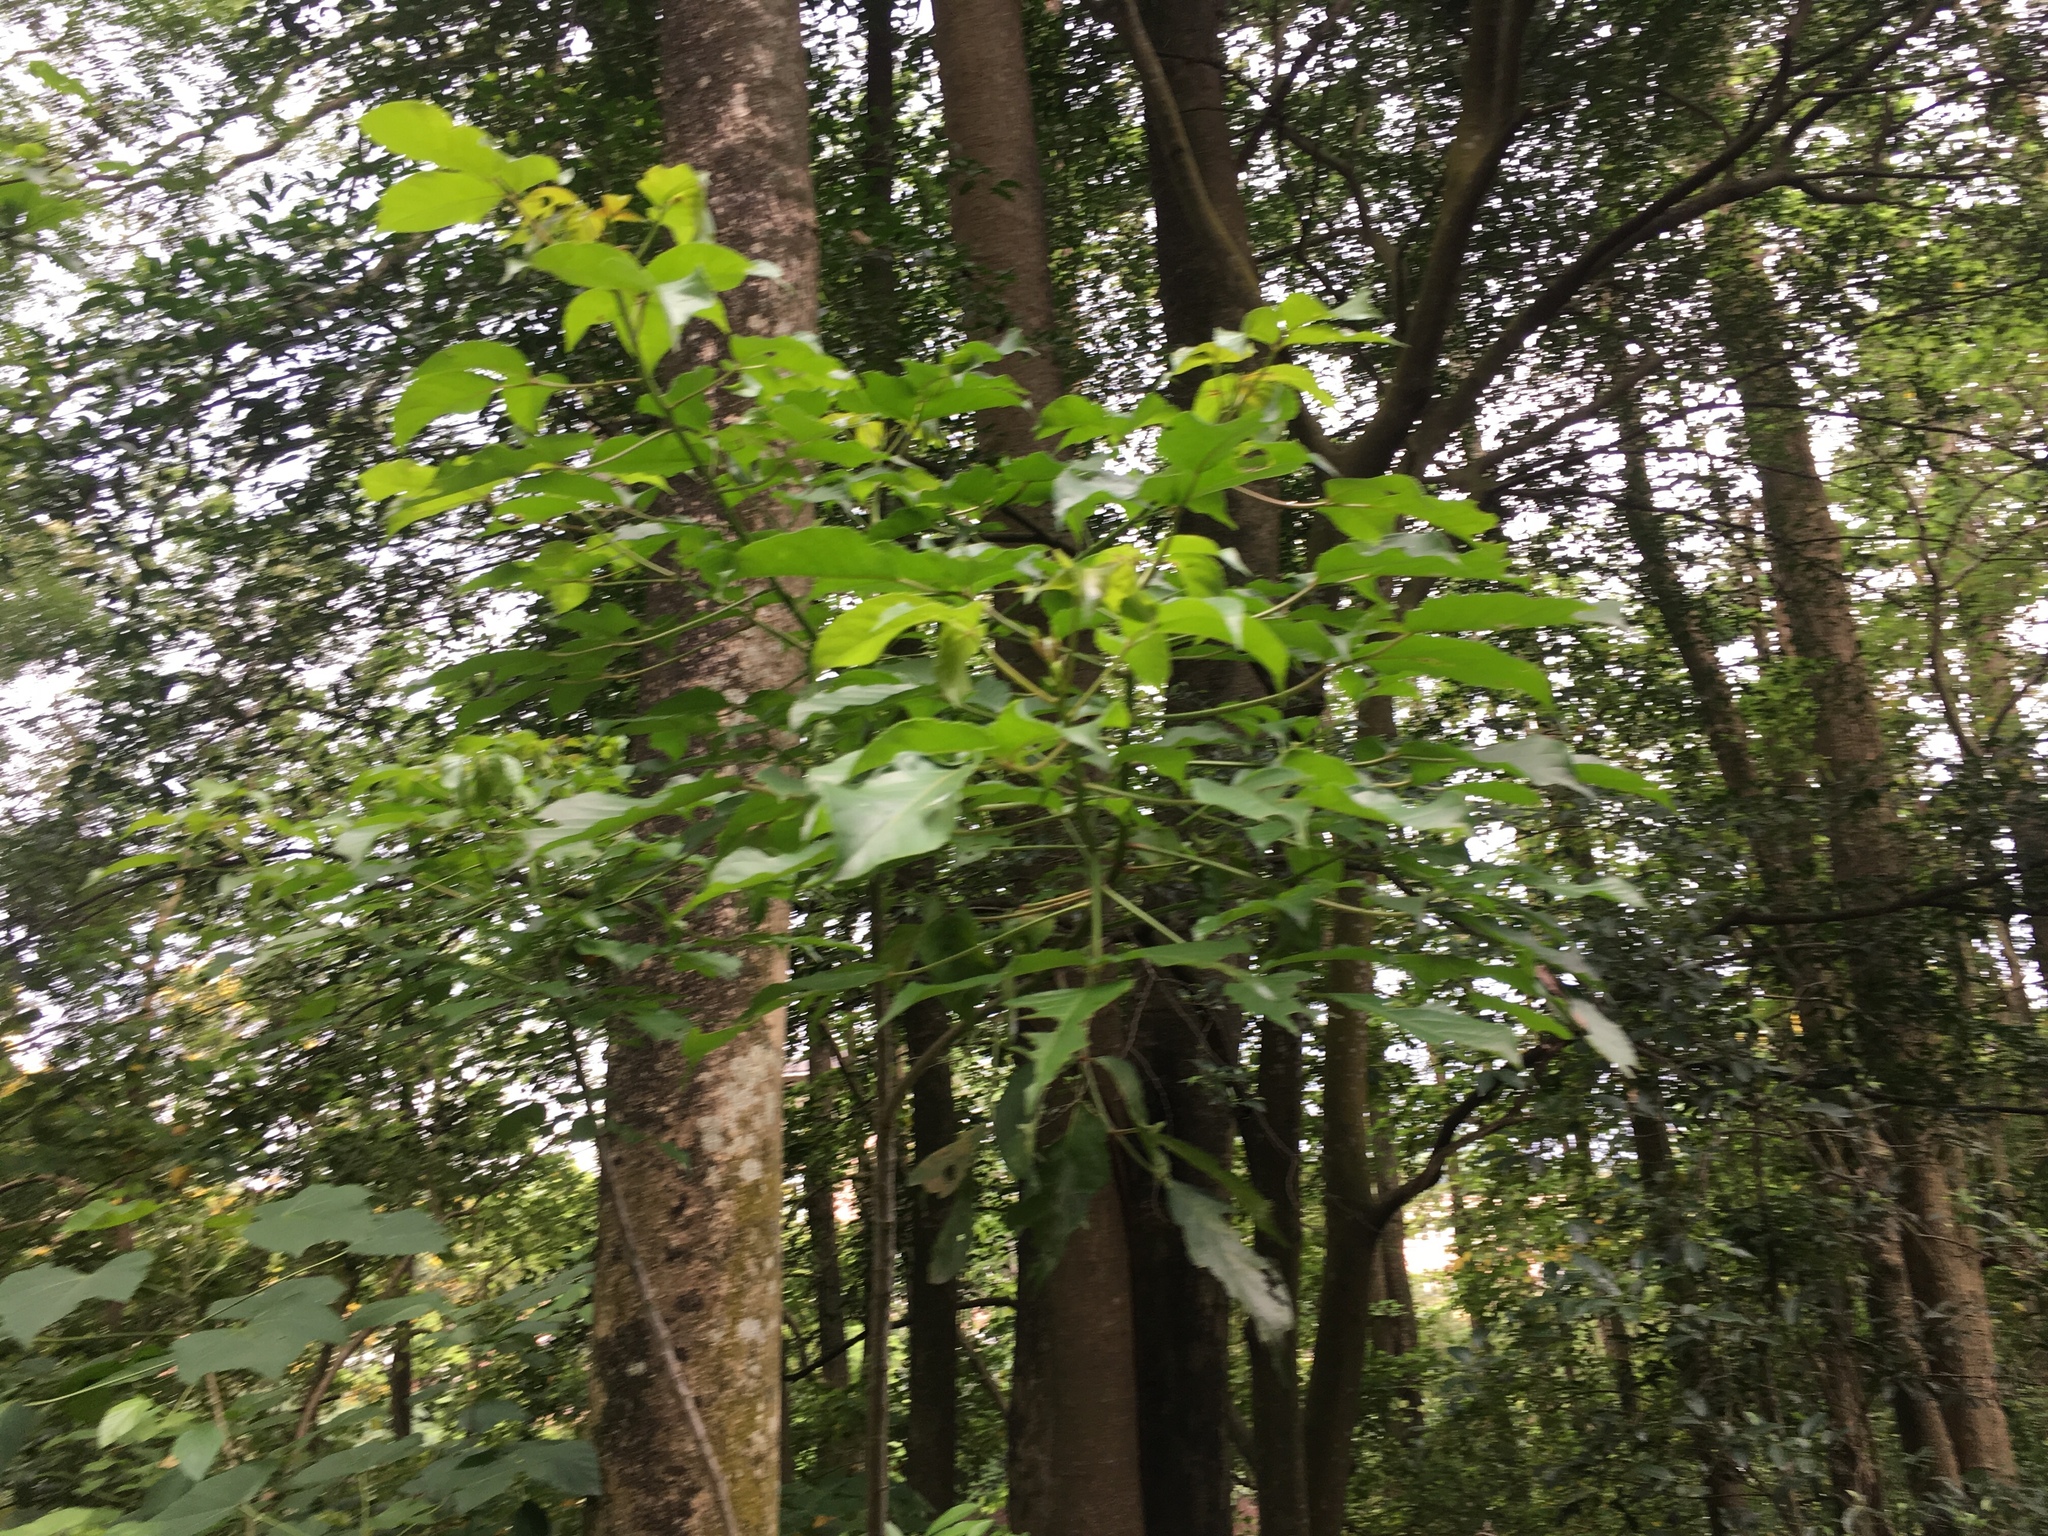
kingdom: Plantae
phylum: Tracheophyta
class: Magnoliopsida
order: Malpighiales
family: Phyllanthaceae
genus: Bischofia
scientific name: Bischofia javanica
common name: Javanese bishopwood
